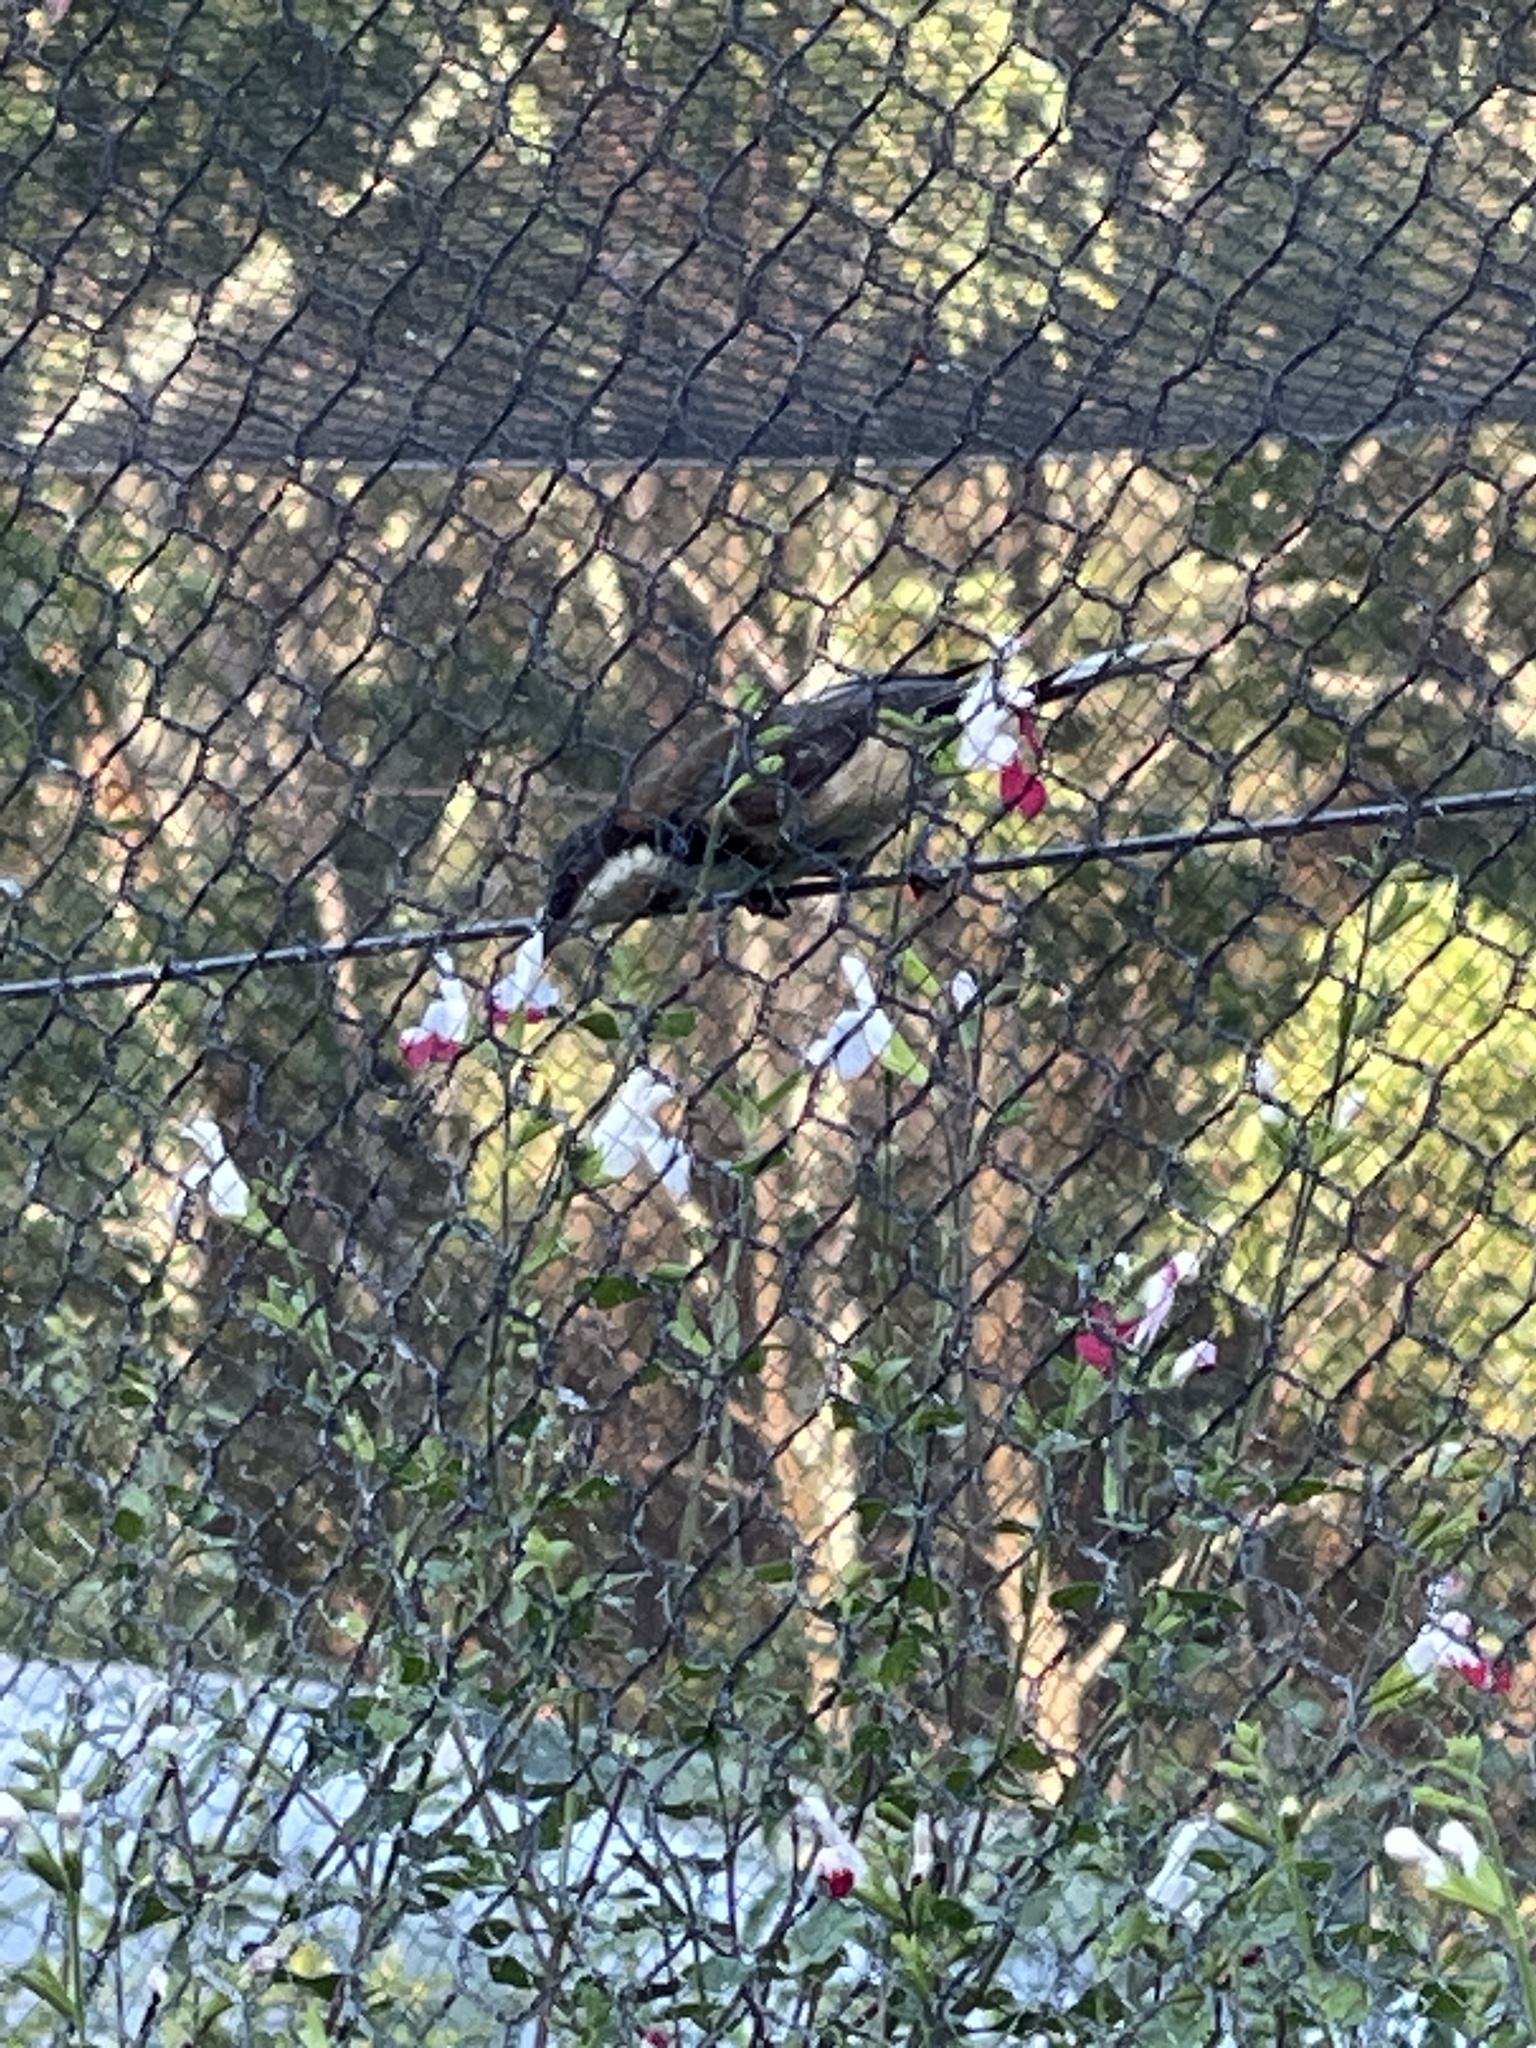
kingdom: Animalia
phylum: Chordata
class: Aves
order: Passeriformes
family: Meliphagidae
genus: Acanthorhynchus
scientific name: Acanthorhynchus tenuirostris
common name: Eastern spinebill
